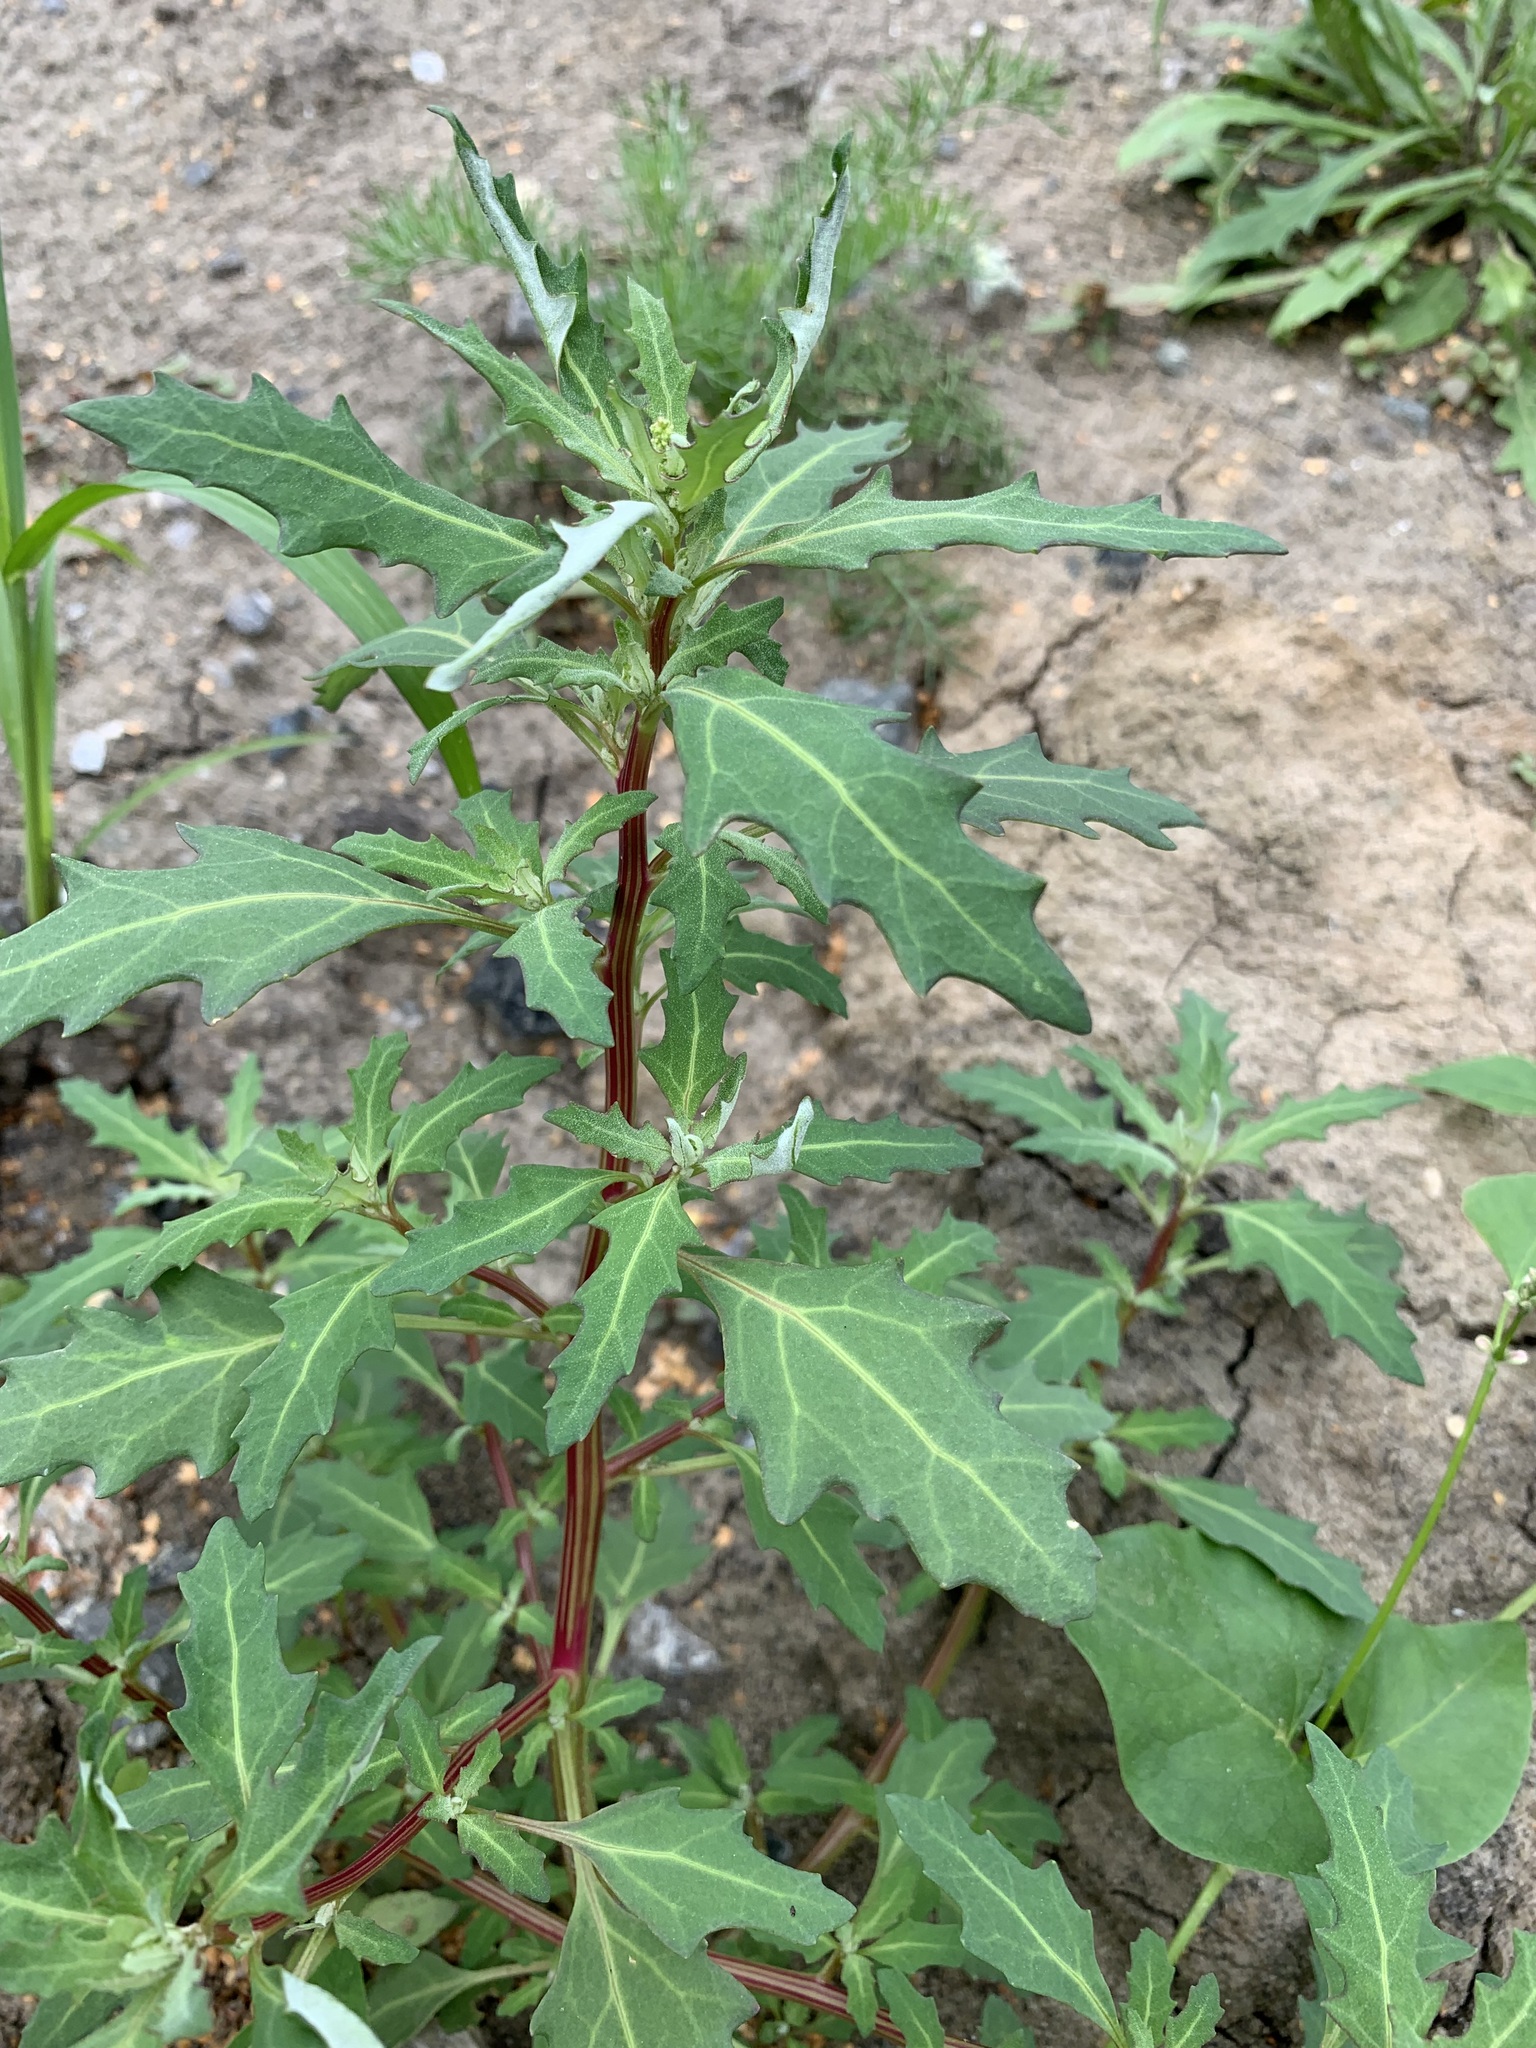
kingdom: Plantae
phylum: Tracheophyta
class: Magnoliopsida
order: Caryophyllales
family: Amaranthaceae
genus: Oxybasis
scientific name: Oxybasis glauca
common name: Glaucous goosefoot
